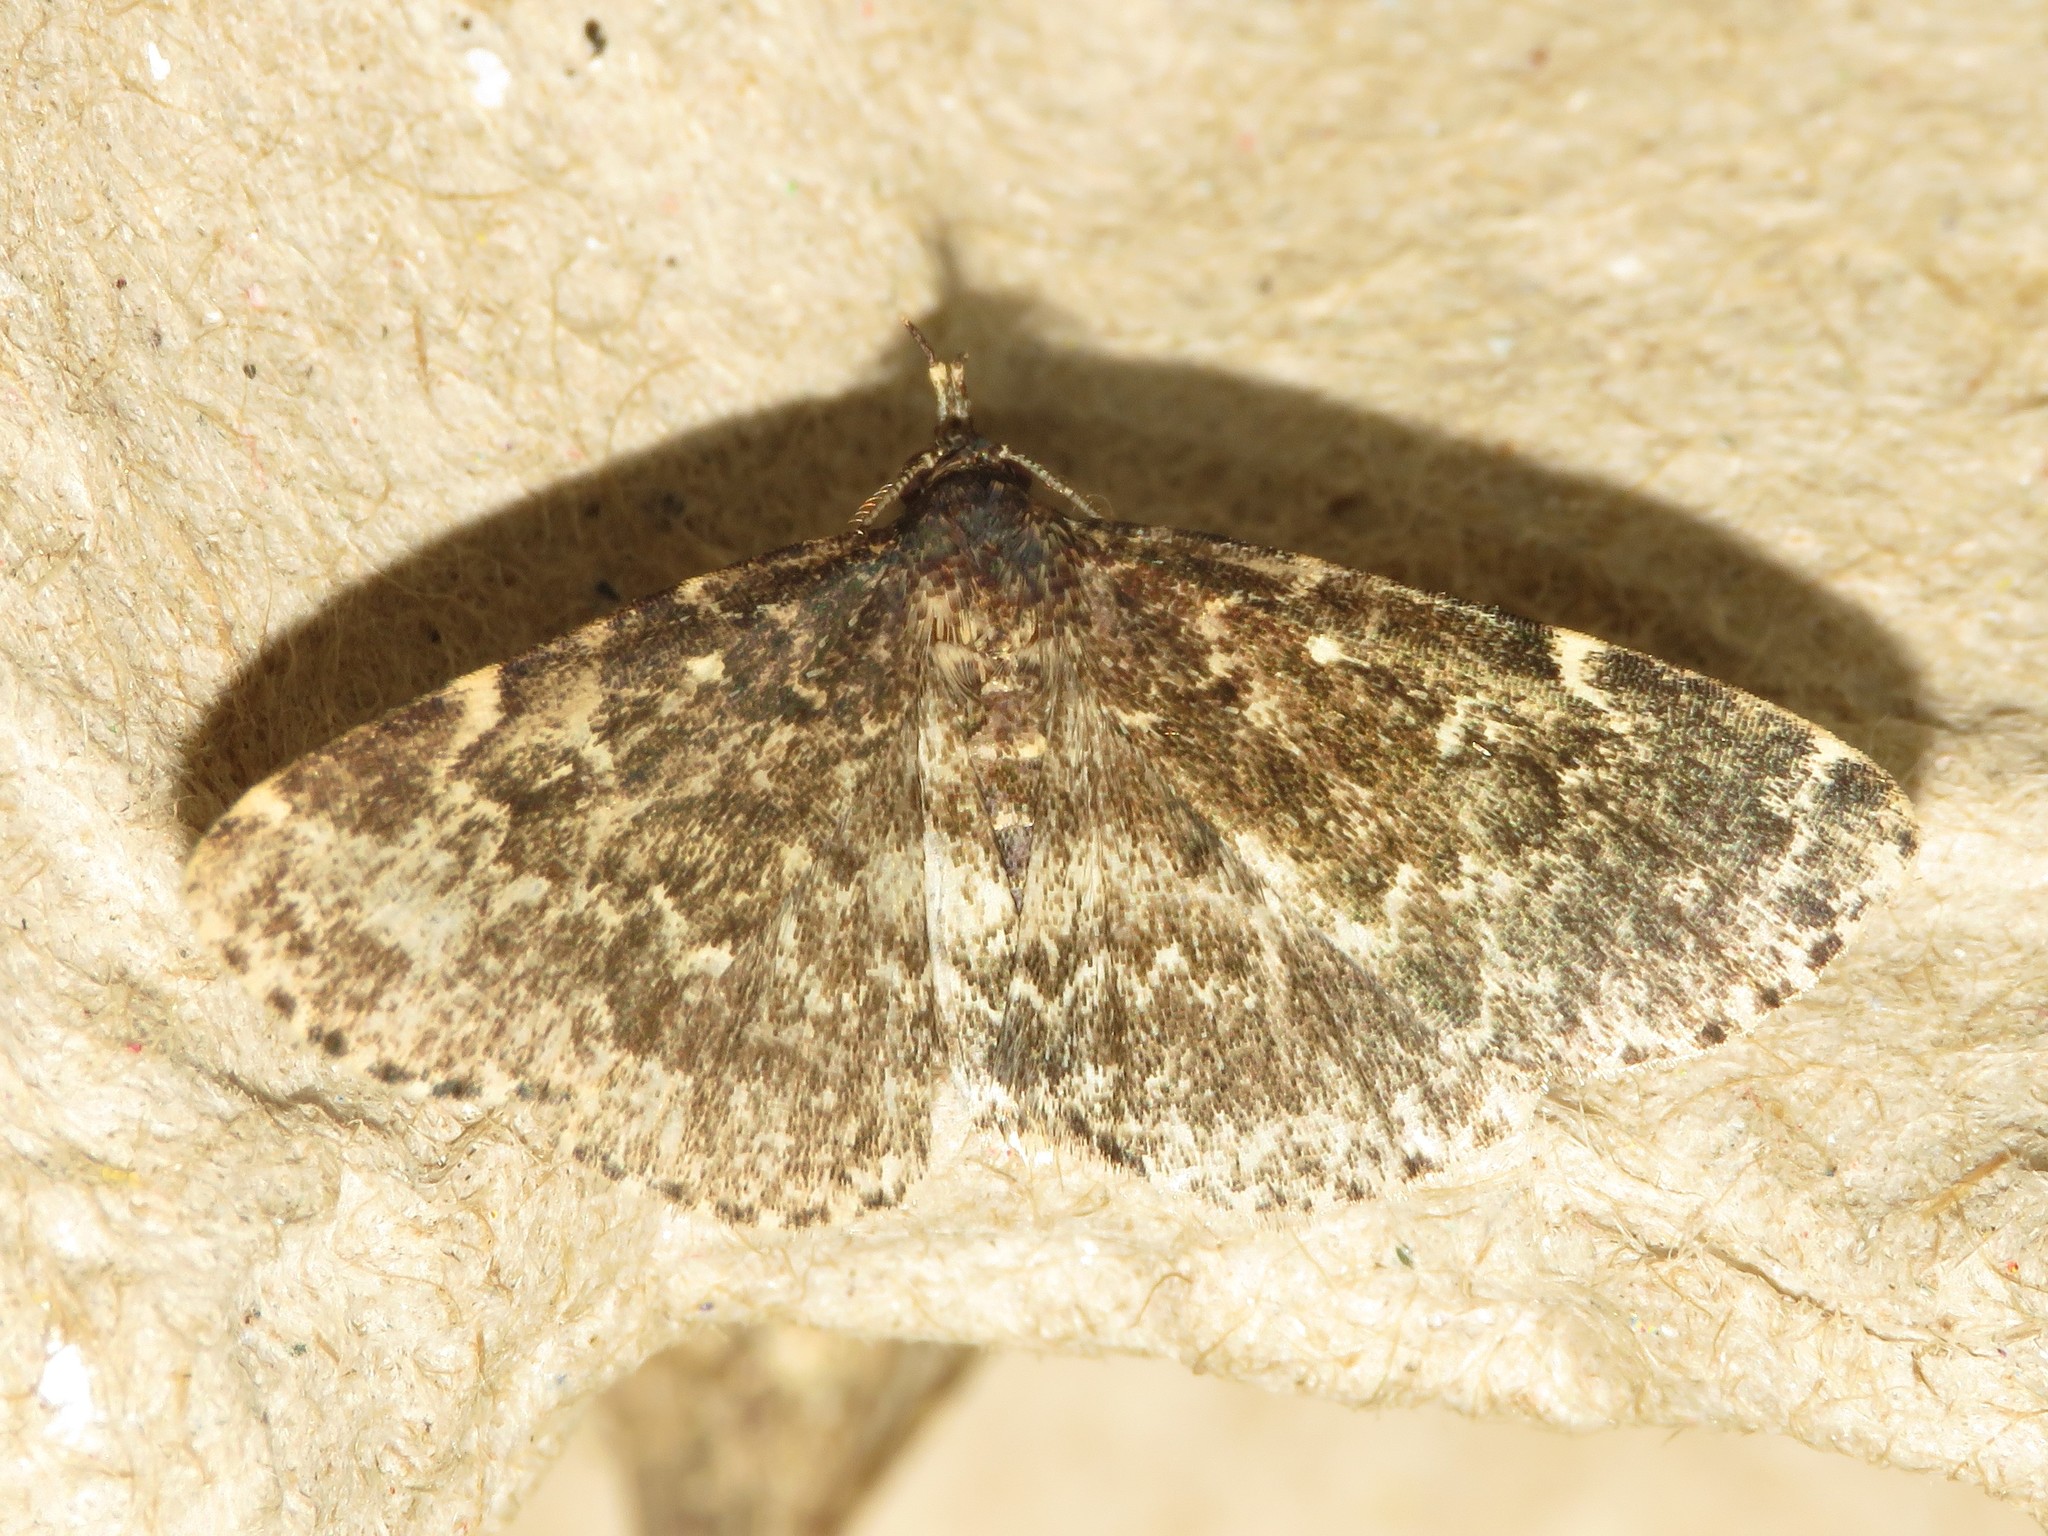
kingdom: Animalia
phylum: Arthropoda
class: Insecta
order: Lepidoptera
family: Erebidae
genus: Idia
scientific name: Idia scobialis
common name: Smoky idia moth
